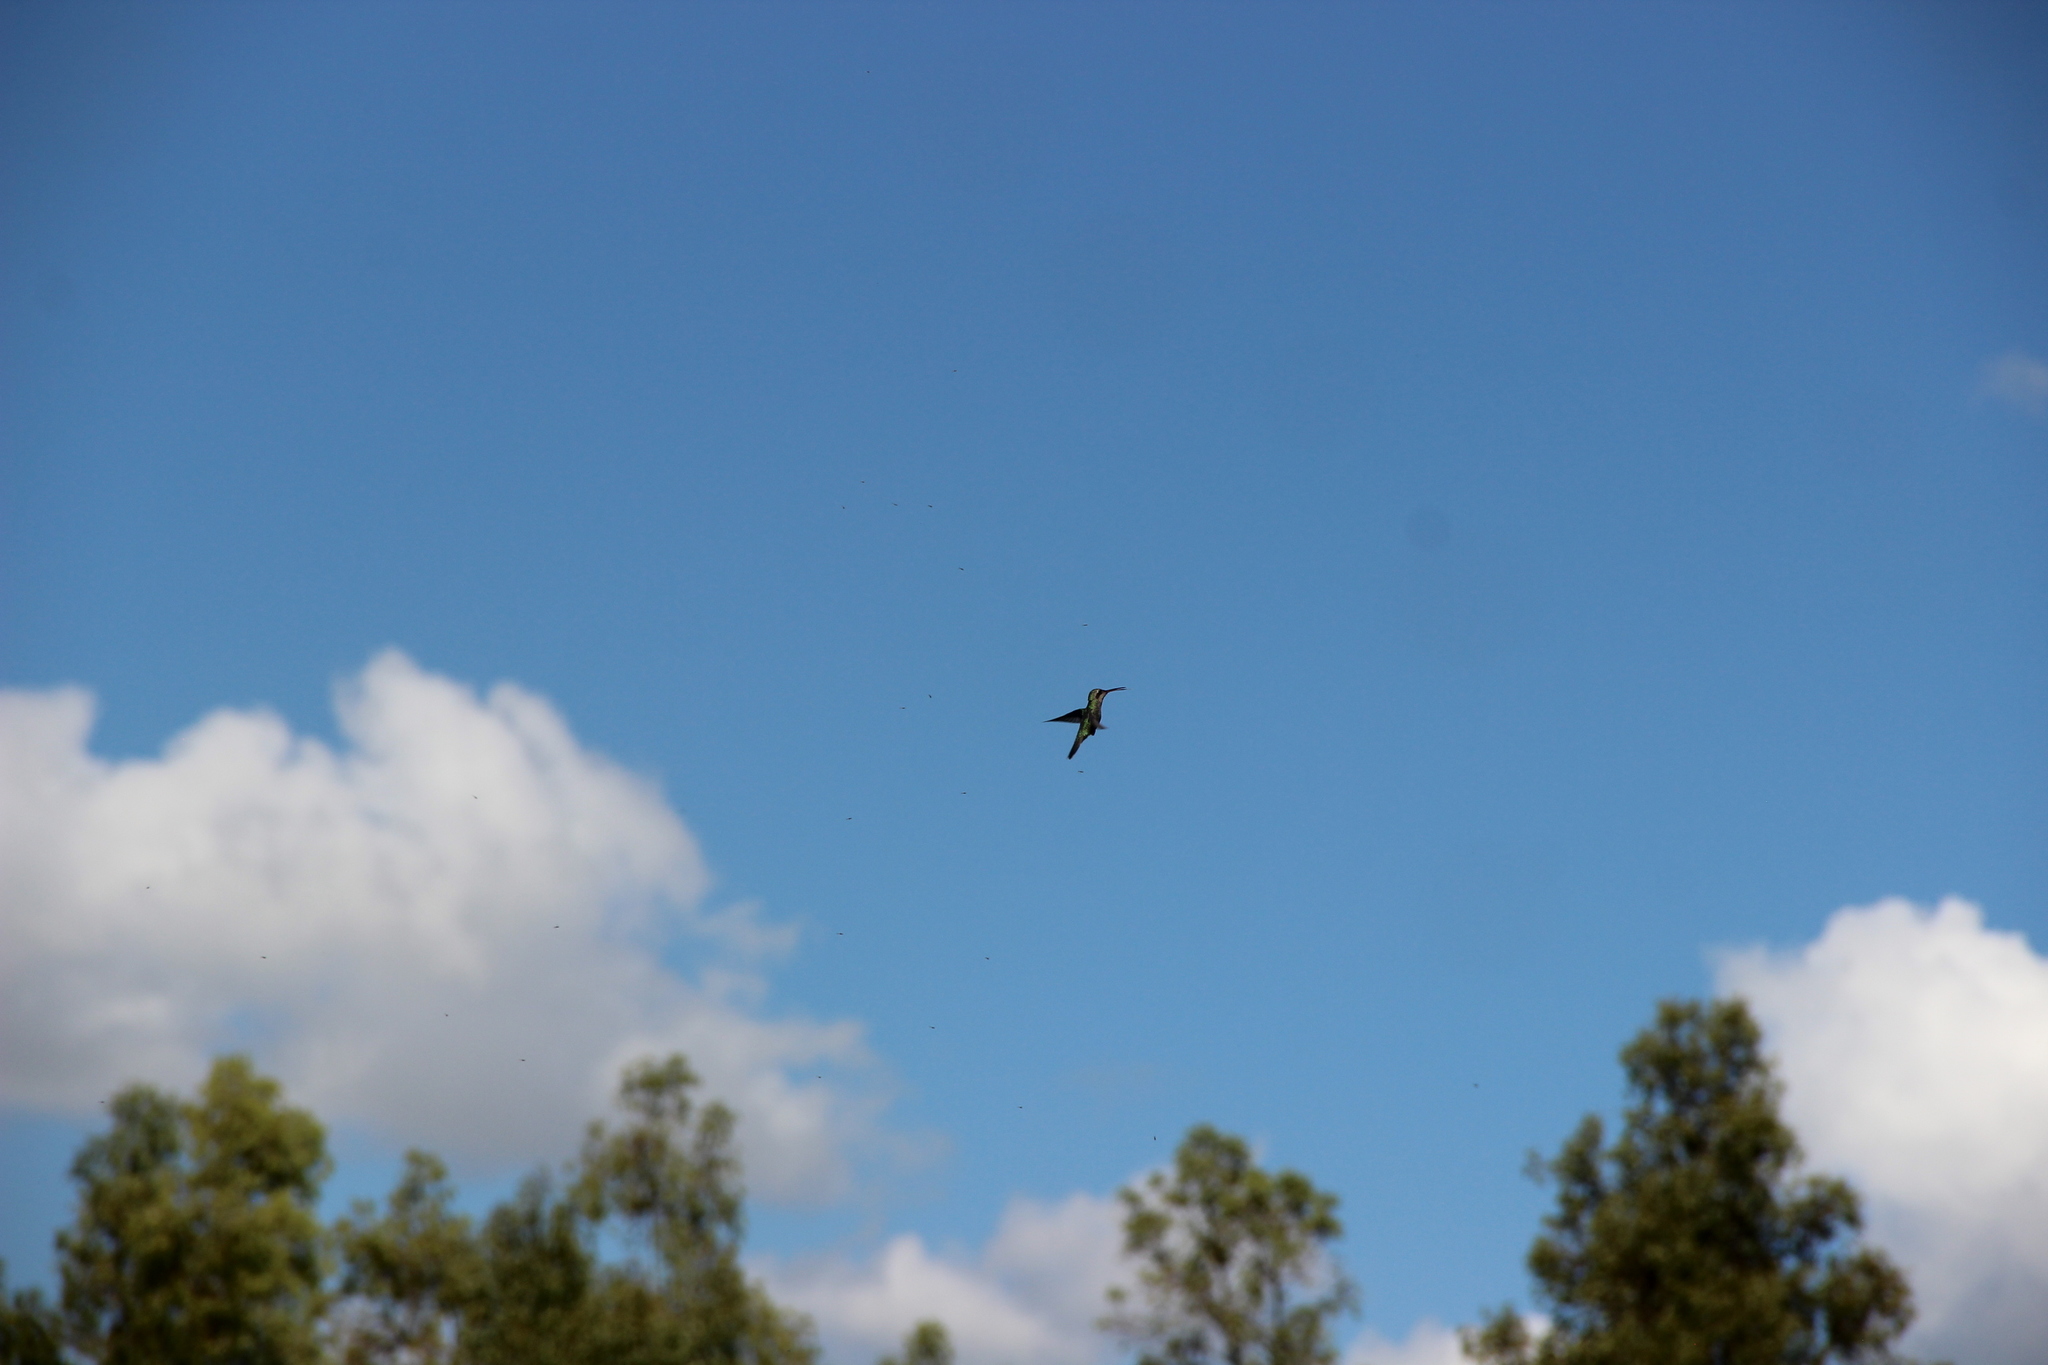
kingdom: Animalia
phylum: Chordata
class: Aves
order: Apodiformes
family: Trochilidae
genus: Cynanthus
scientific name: Cynanthus latirostris
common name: Broad-billed hummingbird
